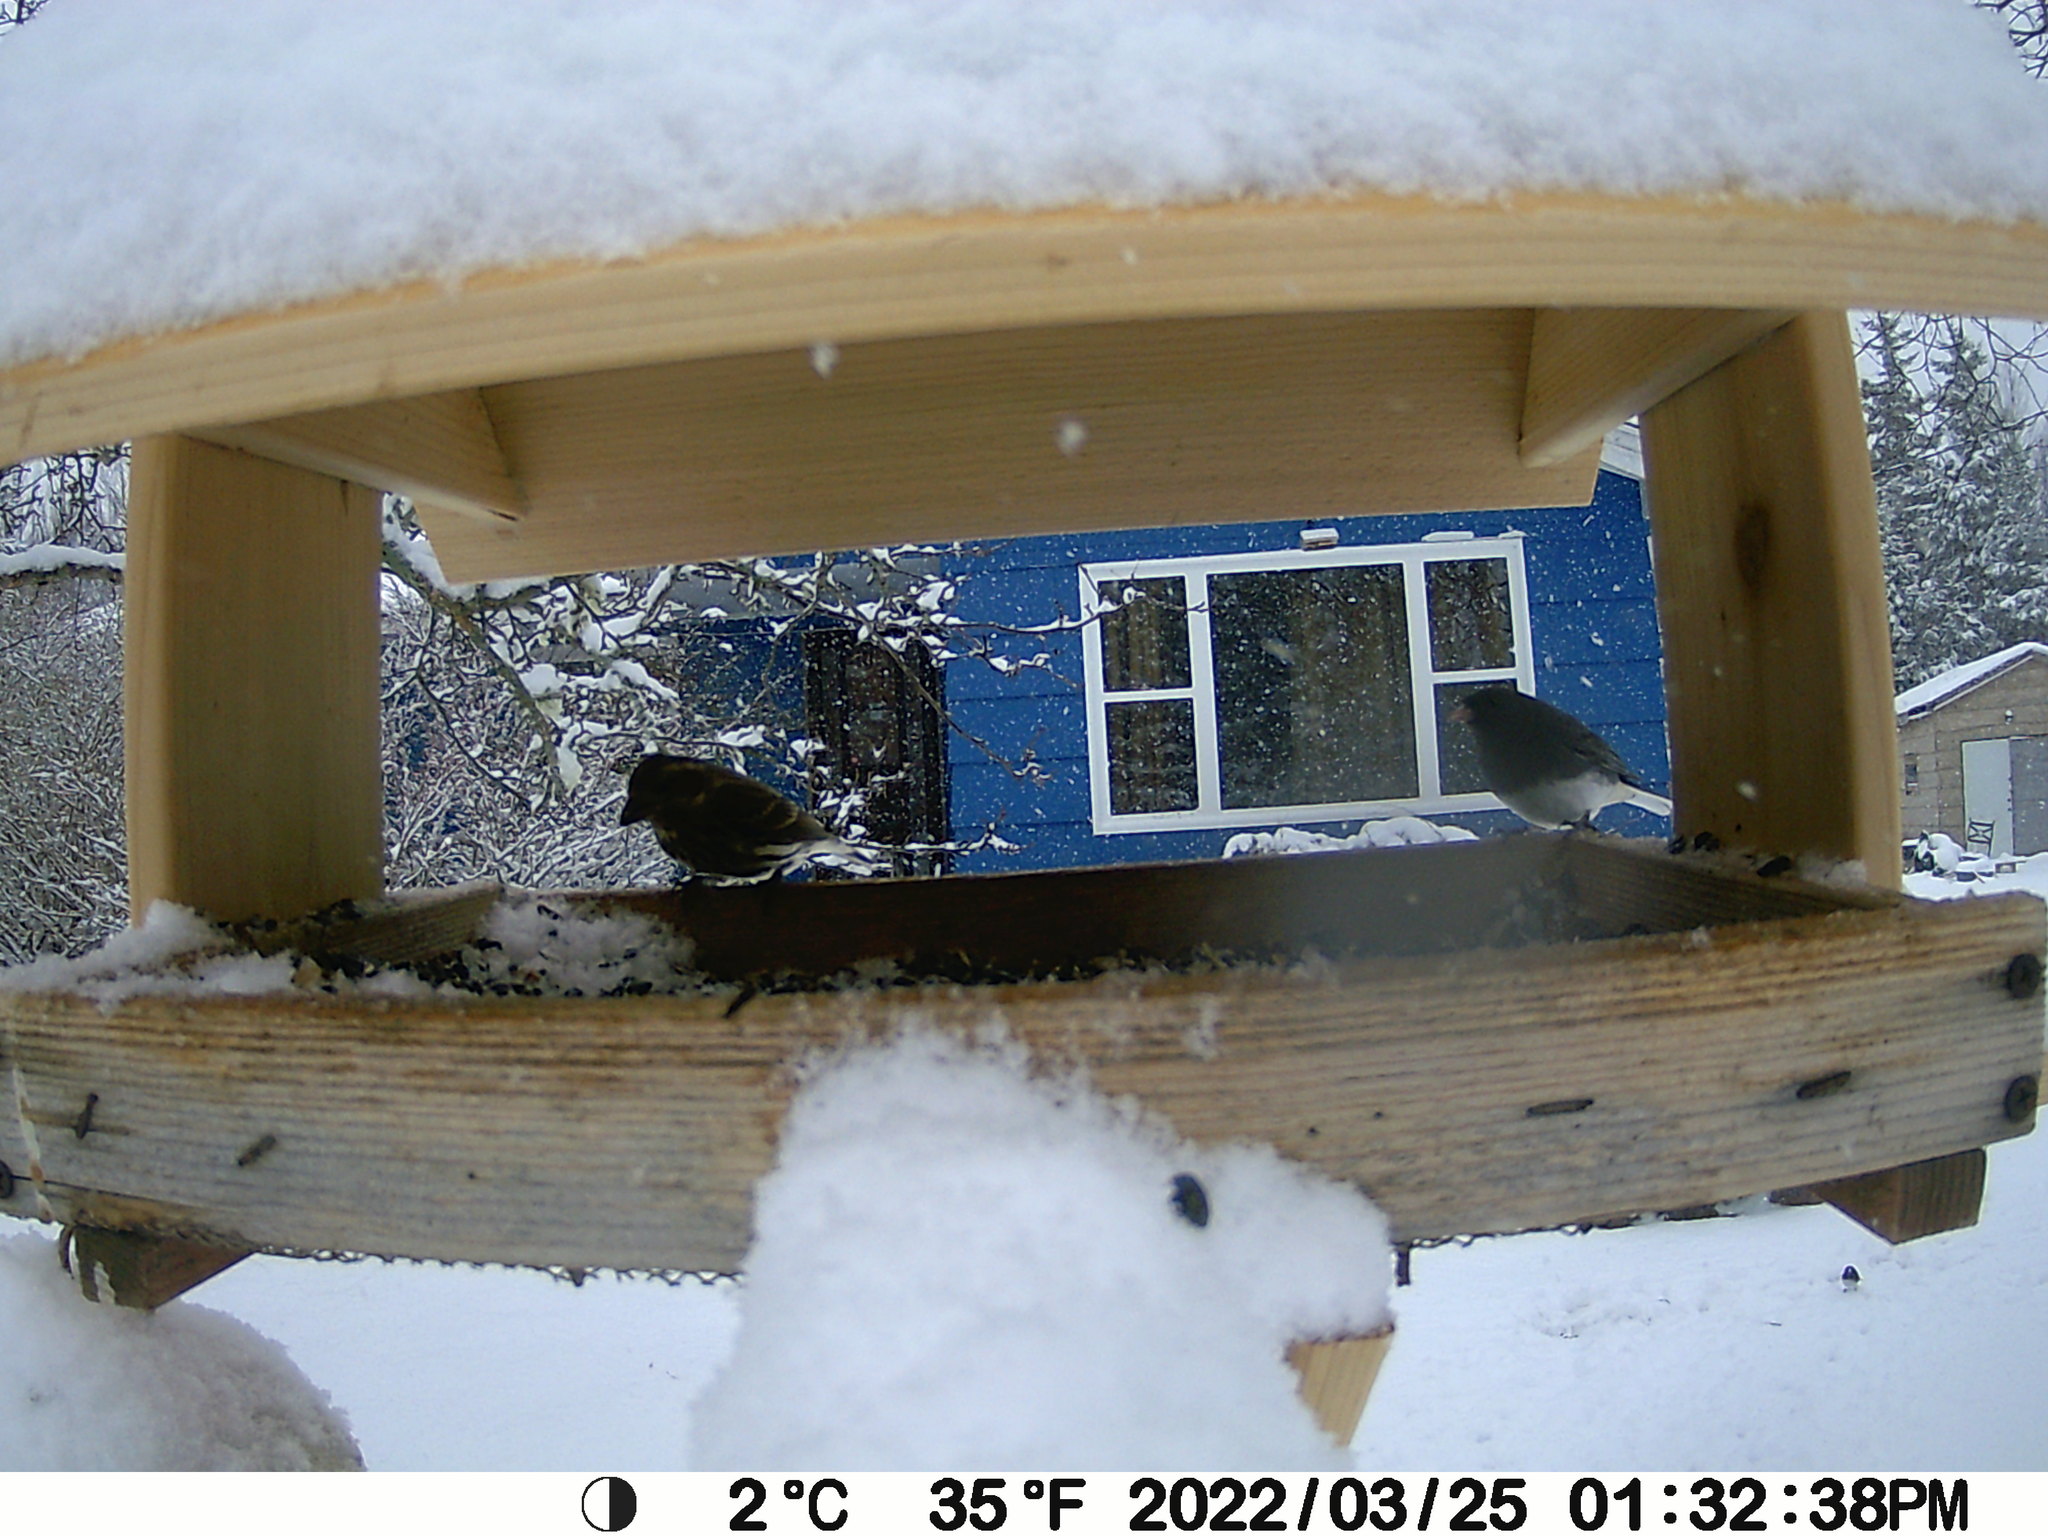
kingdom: Animalia
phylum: Chordata
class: Aves
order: Passeriformes
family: Passerellidae
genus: Junco
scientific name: Junco hyemalis
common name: Dark-eyed junco
